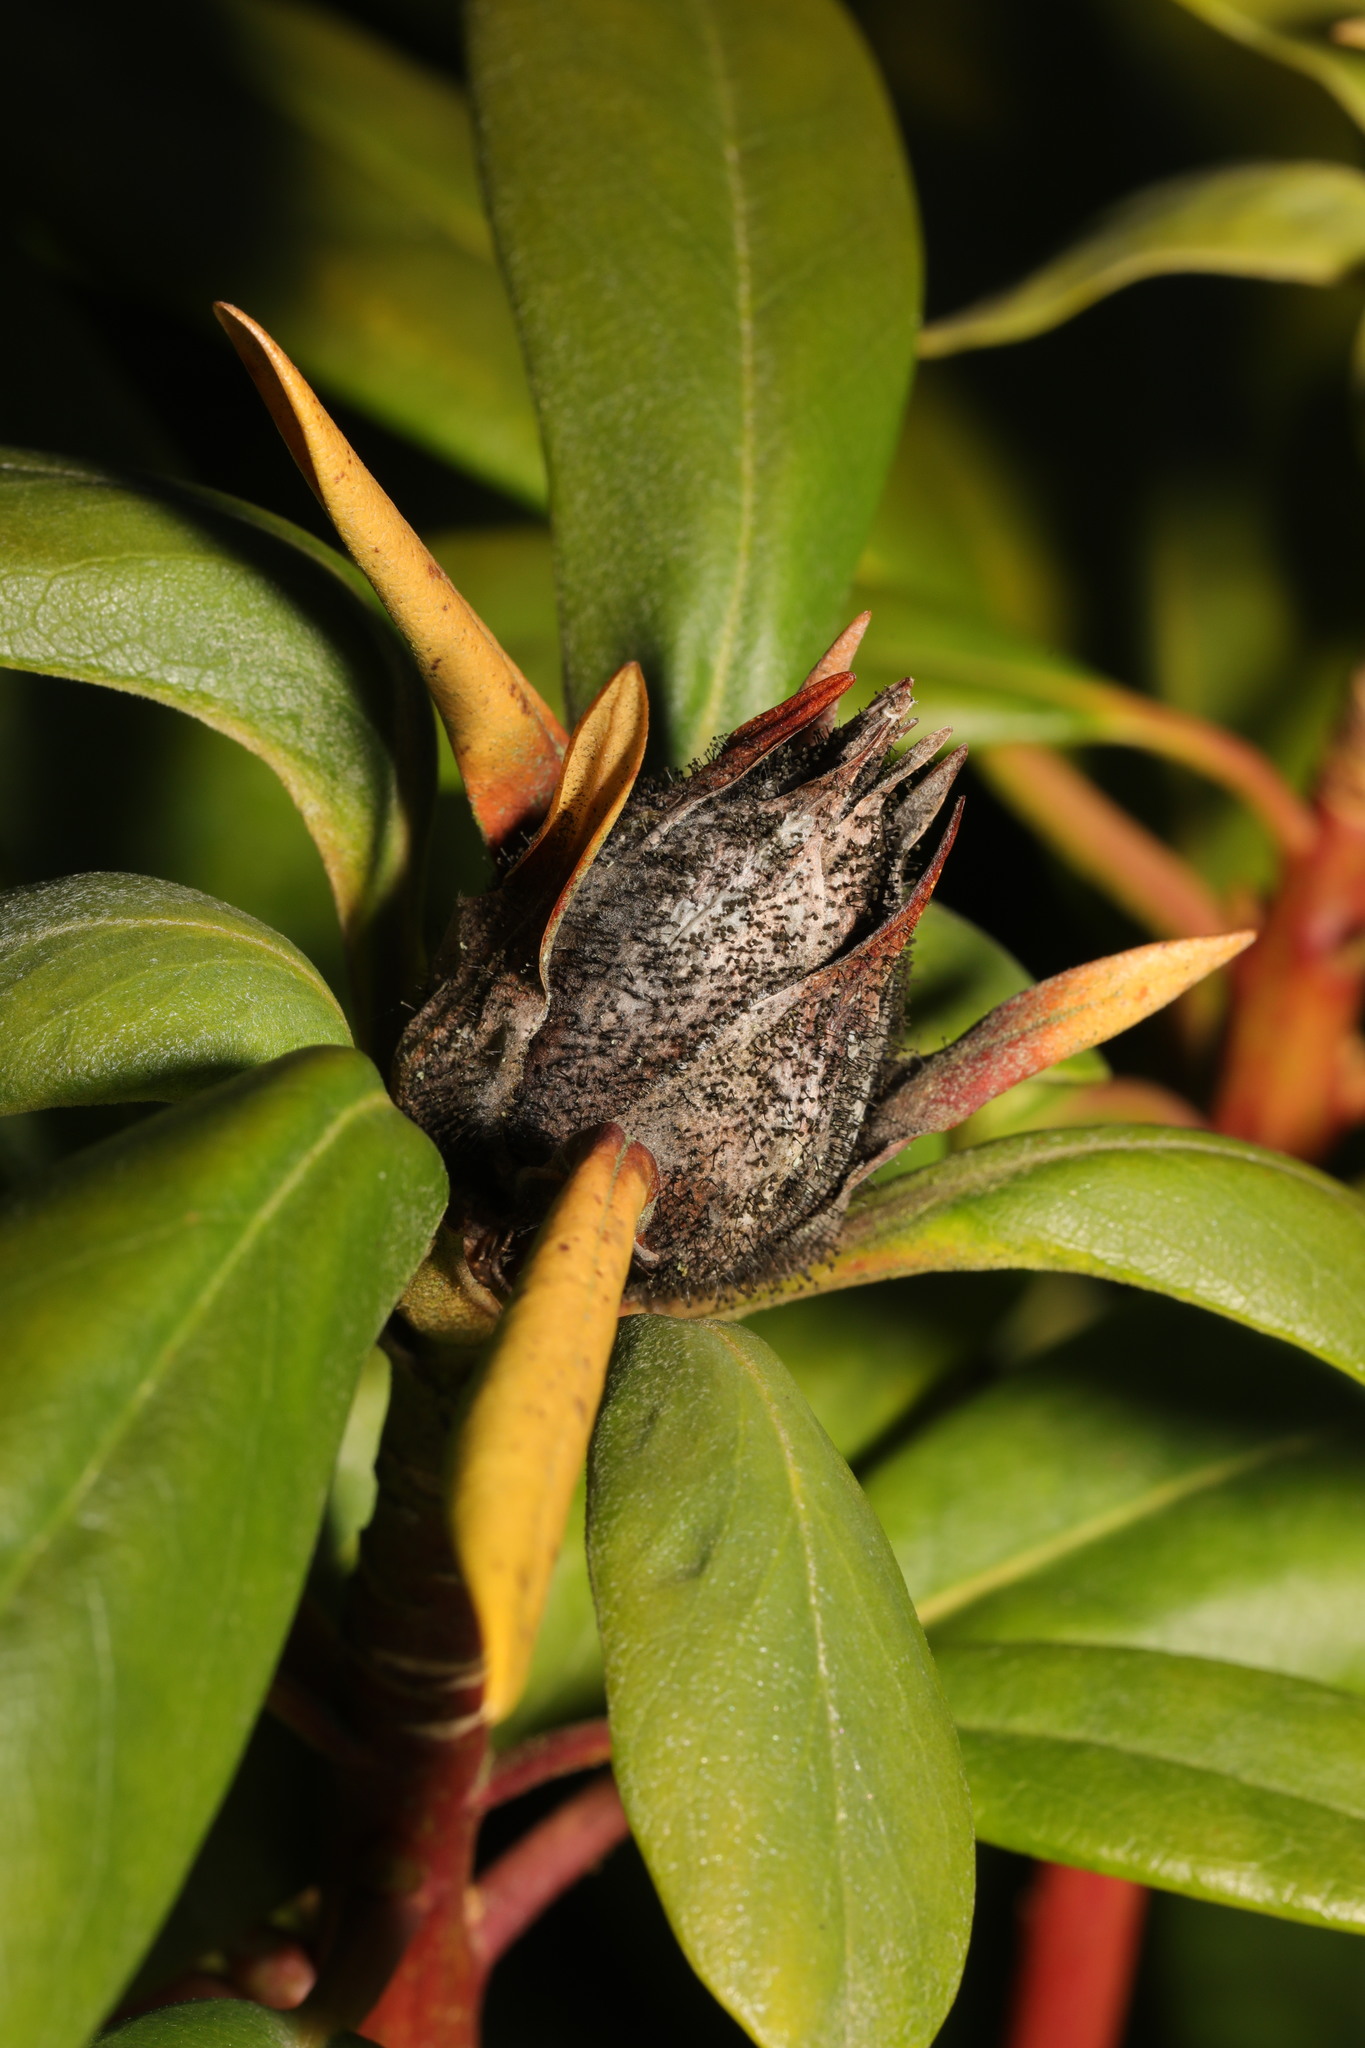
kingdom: Fungi
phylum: Ascomycota
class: Dothideomycetes
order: Pleosporales
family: Melanommataceae
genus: Seifertia
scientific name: Seifertia azaleae
